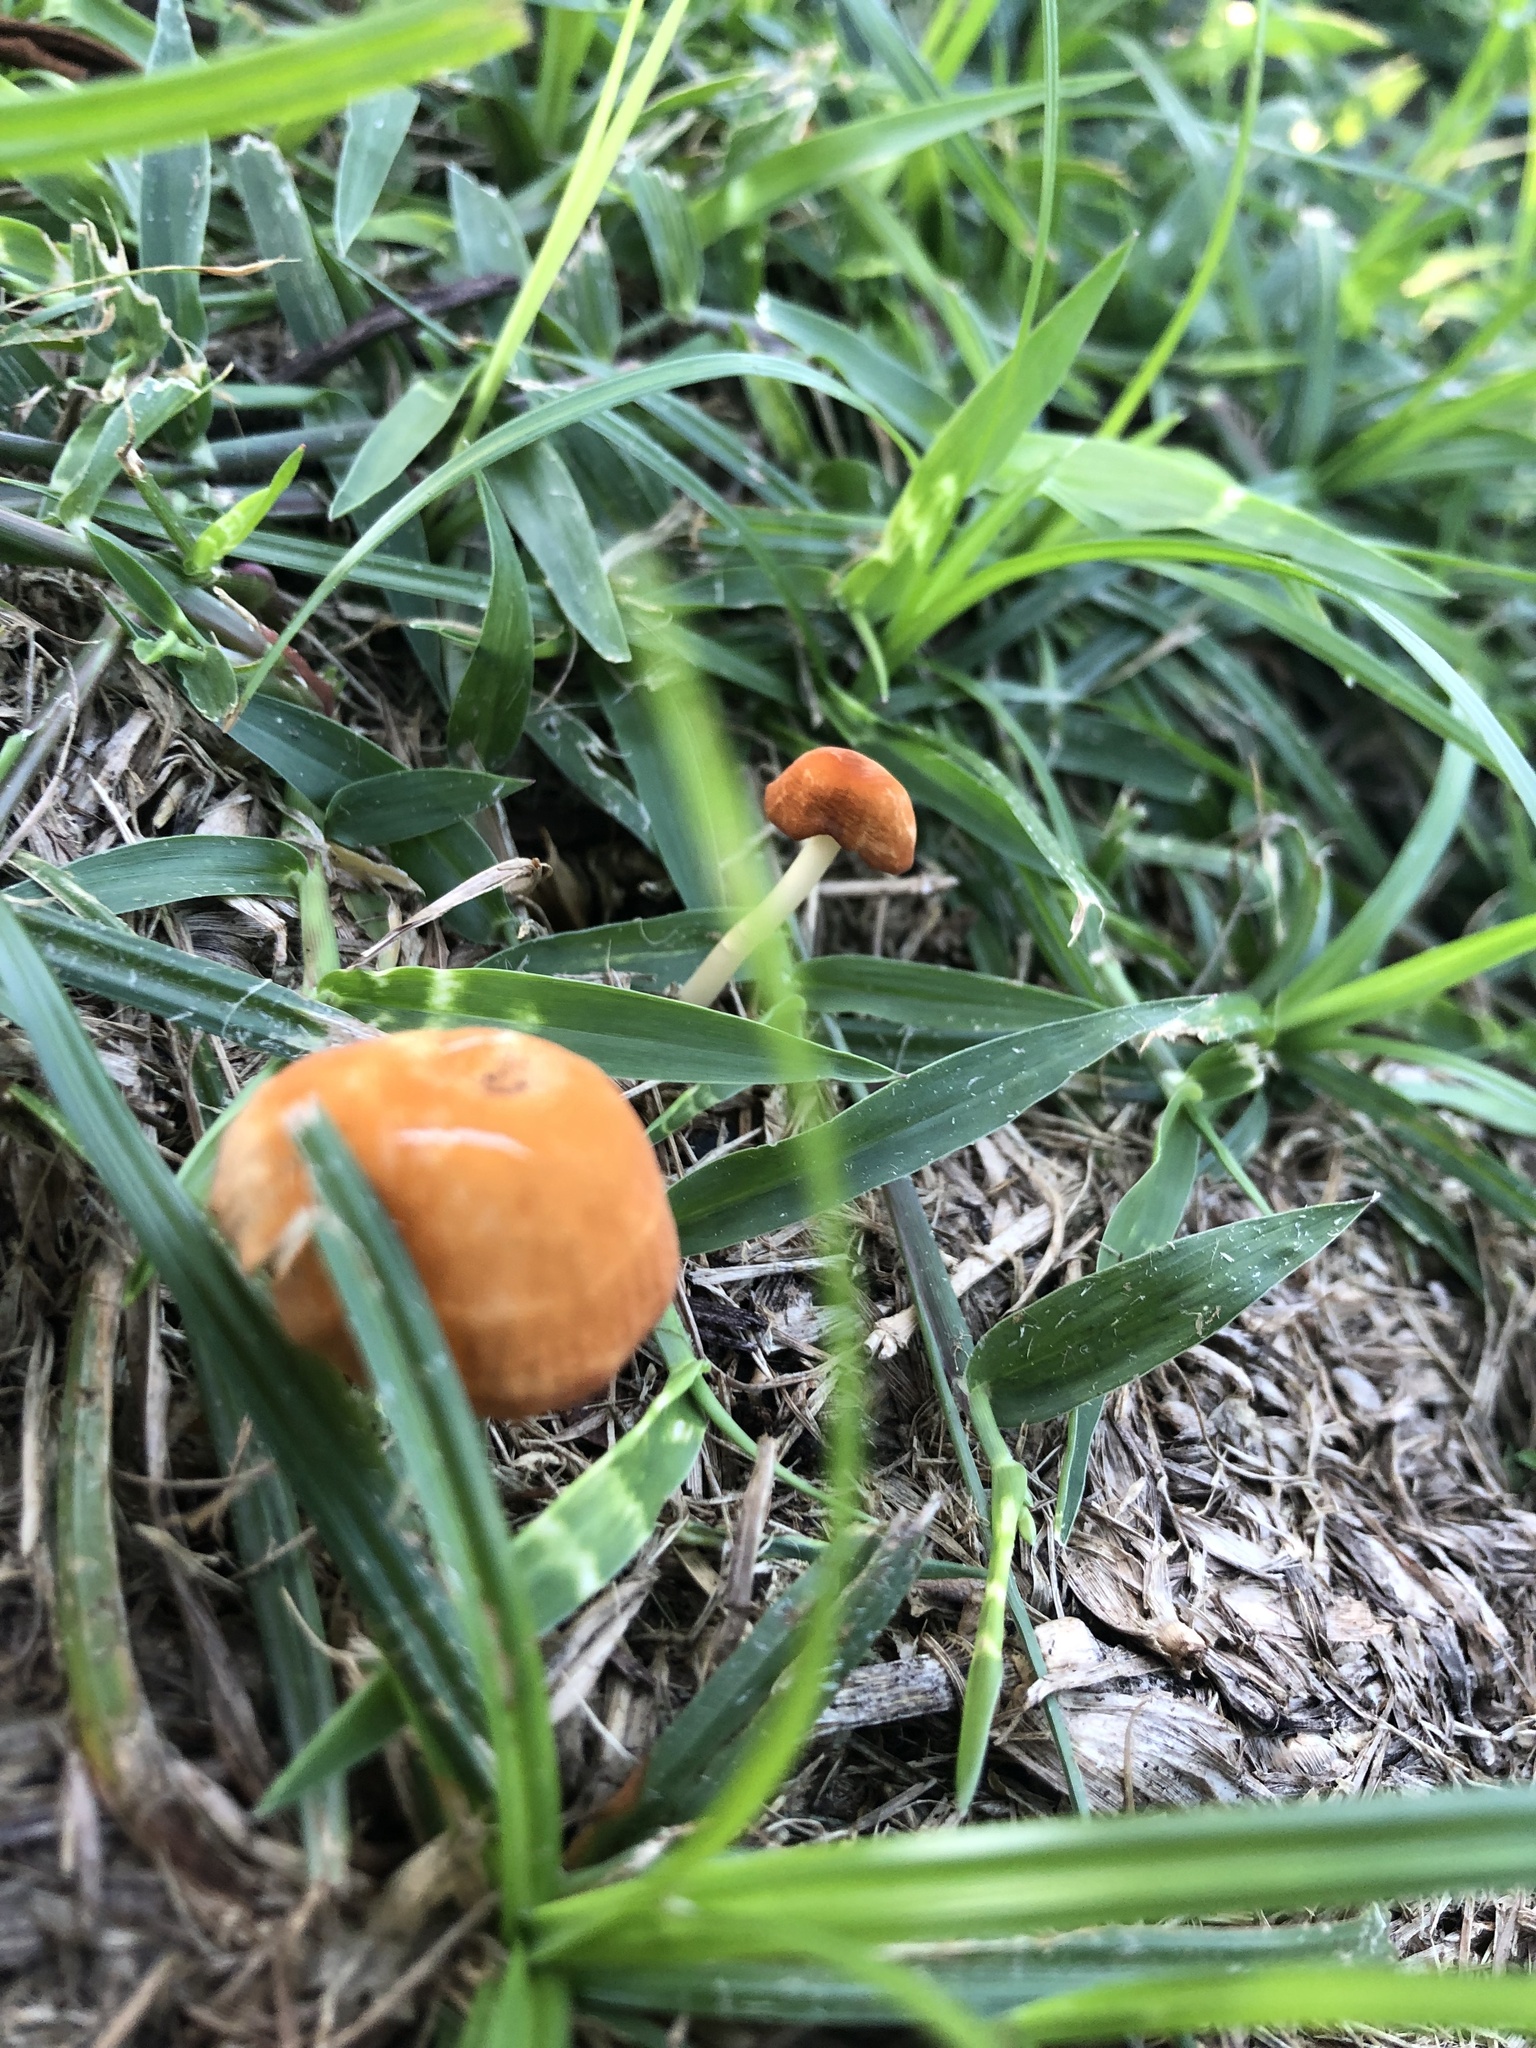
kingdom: Fungi
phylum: Basidiomycota
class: Agaricomycetes
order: Agaricales
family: Marasmiaceae
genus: Marasmius
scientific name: Marasmius vagus
